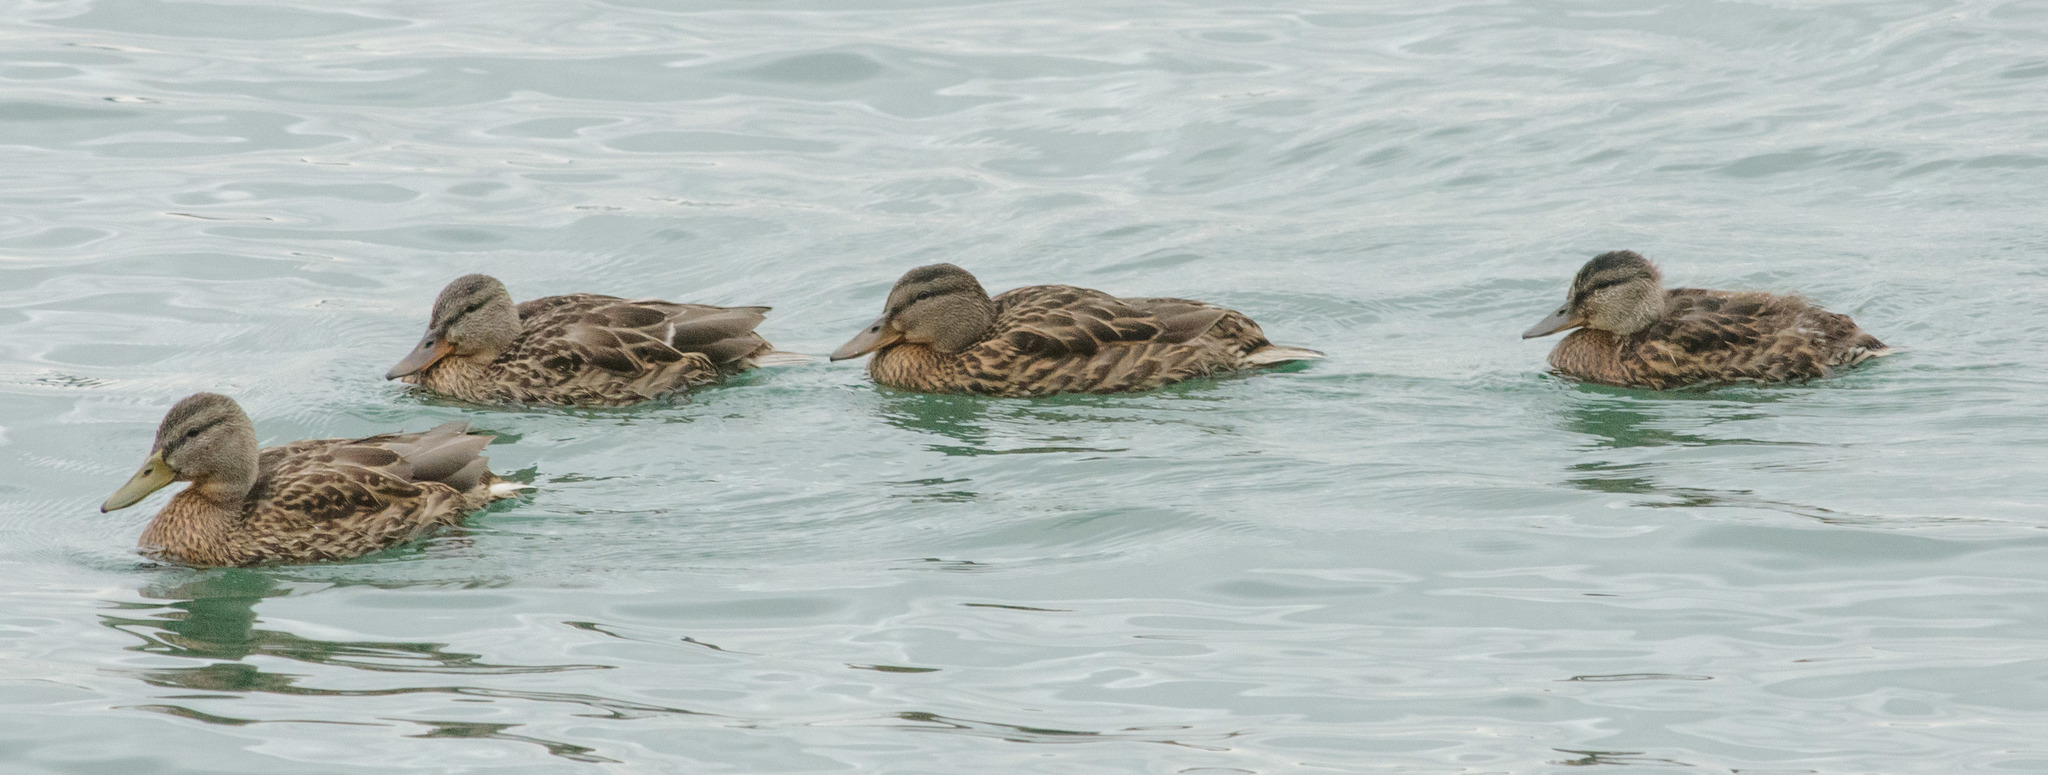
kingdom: Animalia
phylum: Chordata
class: Aves
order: Anseriformes
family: Anatidae
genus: Anas
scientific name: Anas platyrhynchos
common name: Mallard
